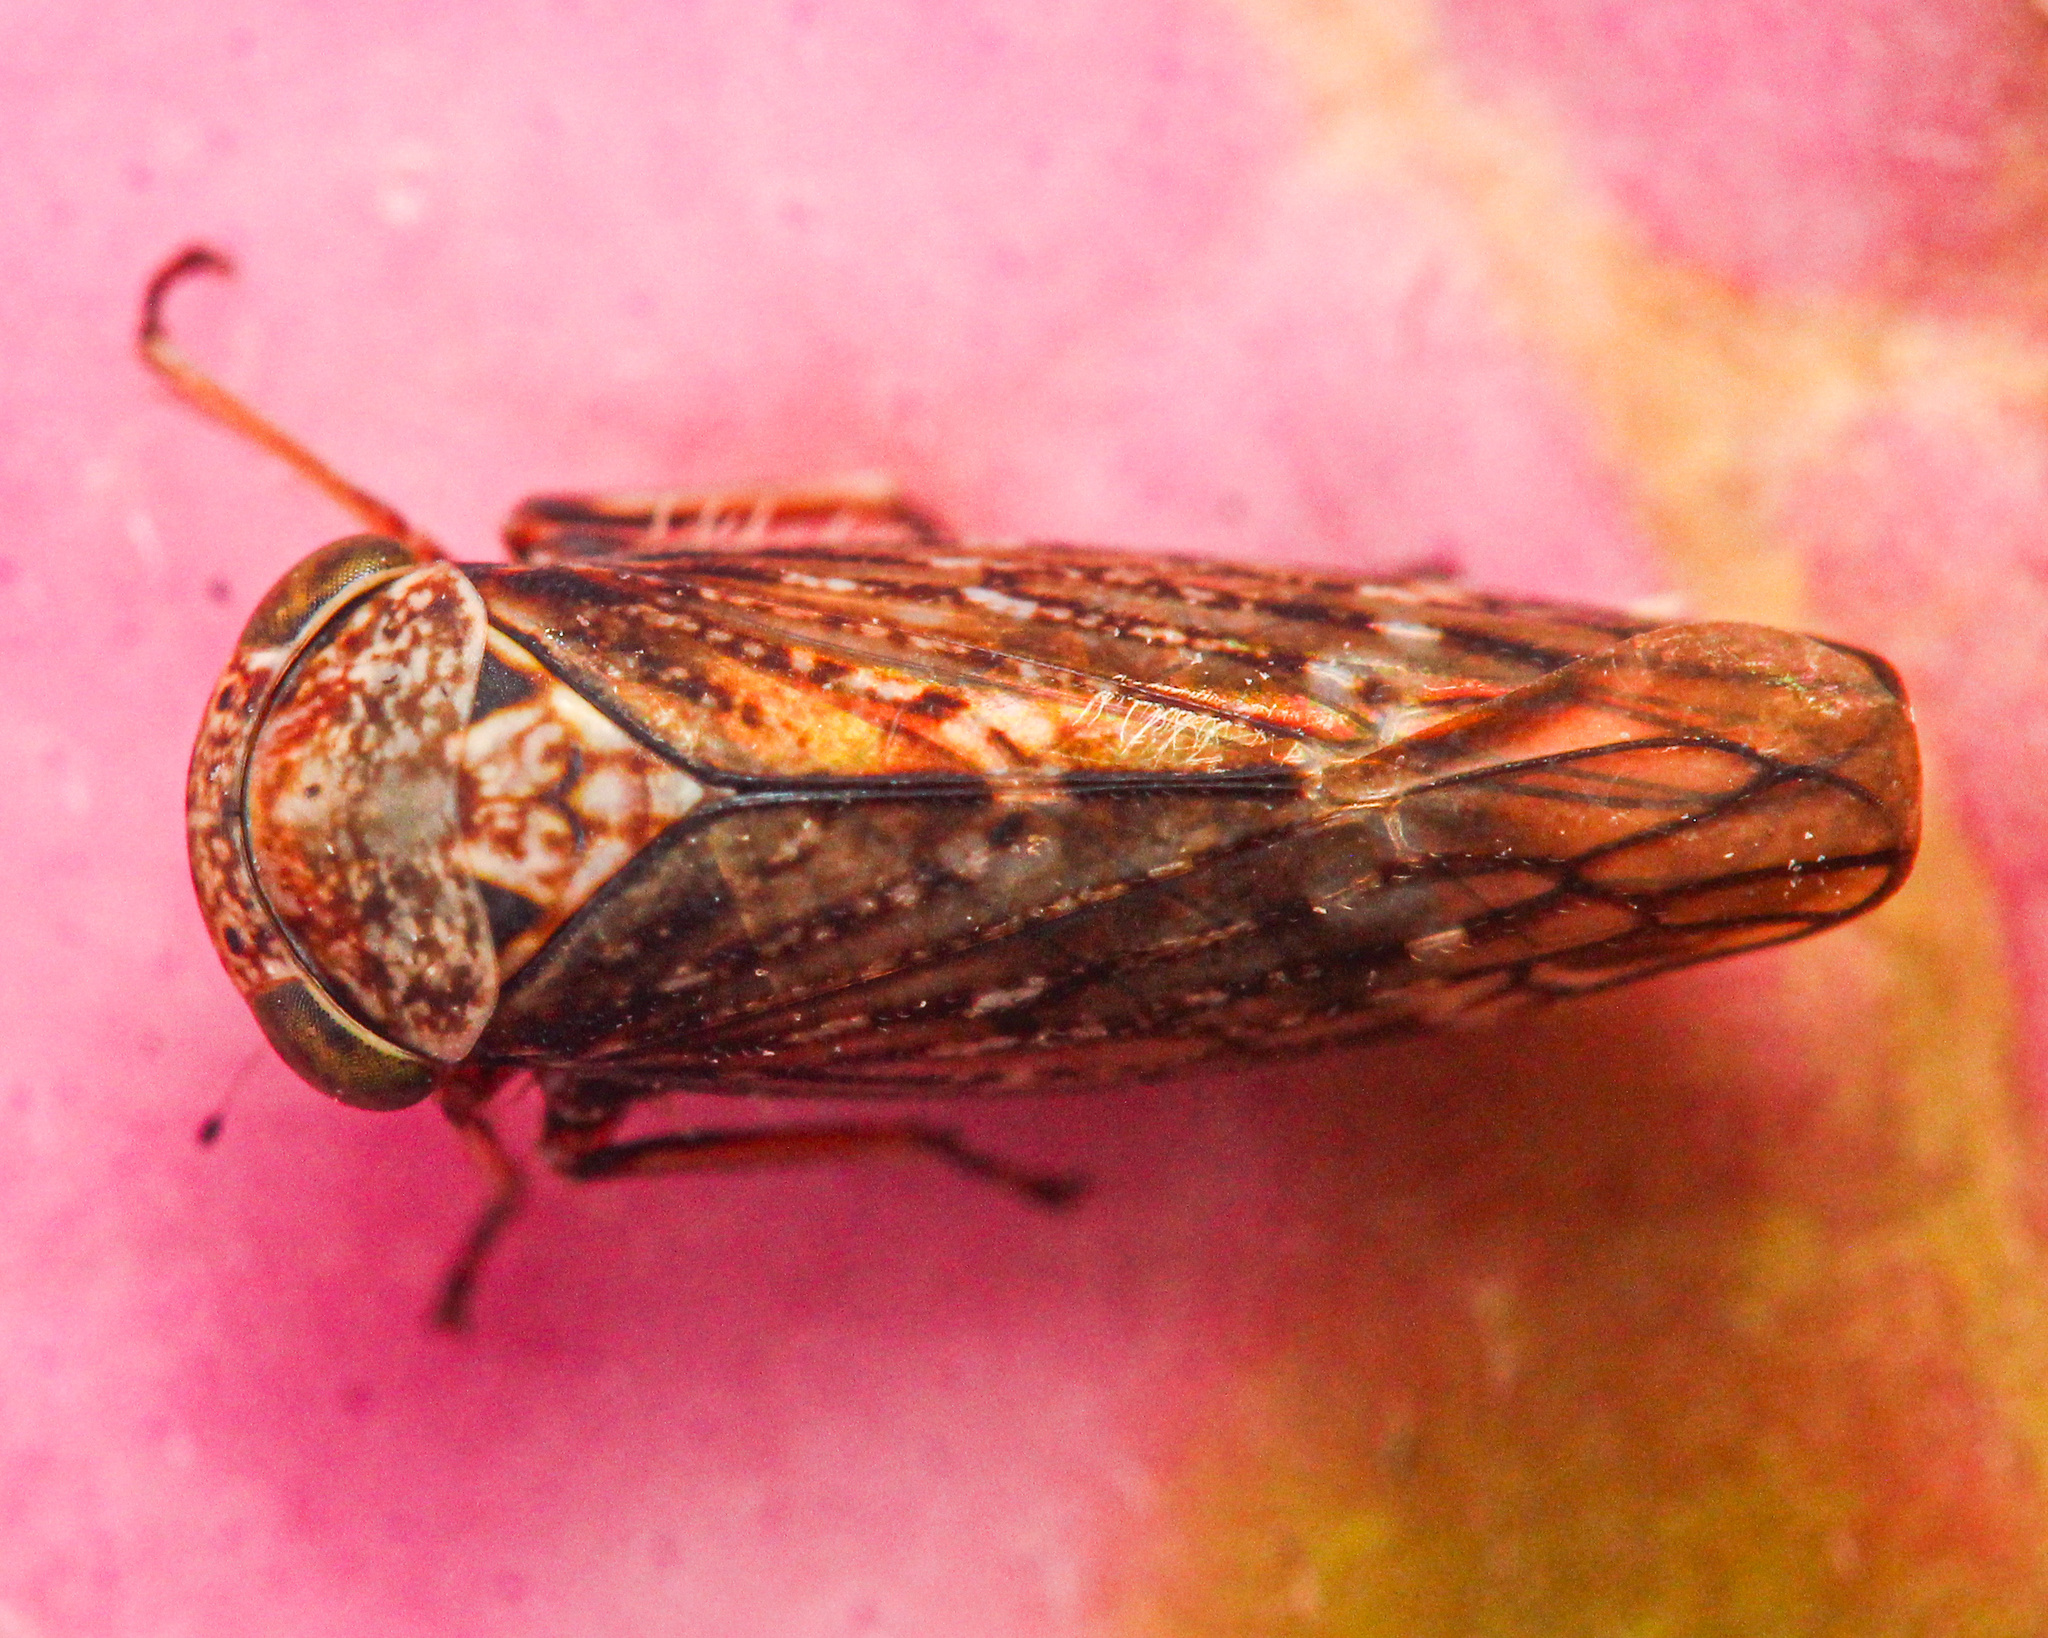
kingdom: Animalia
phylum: Arthropoda
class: Insecta
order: Hemiptera
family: Cicadellidae
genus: Acericerus
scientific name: Acericerus ribauti
